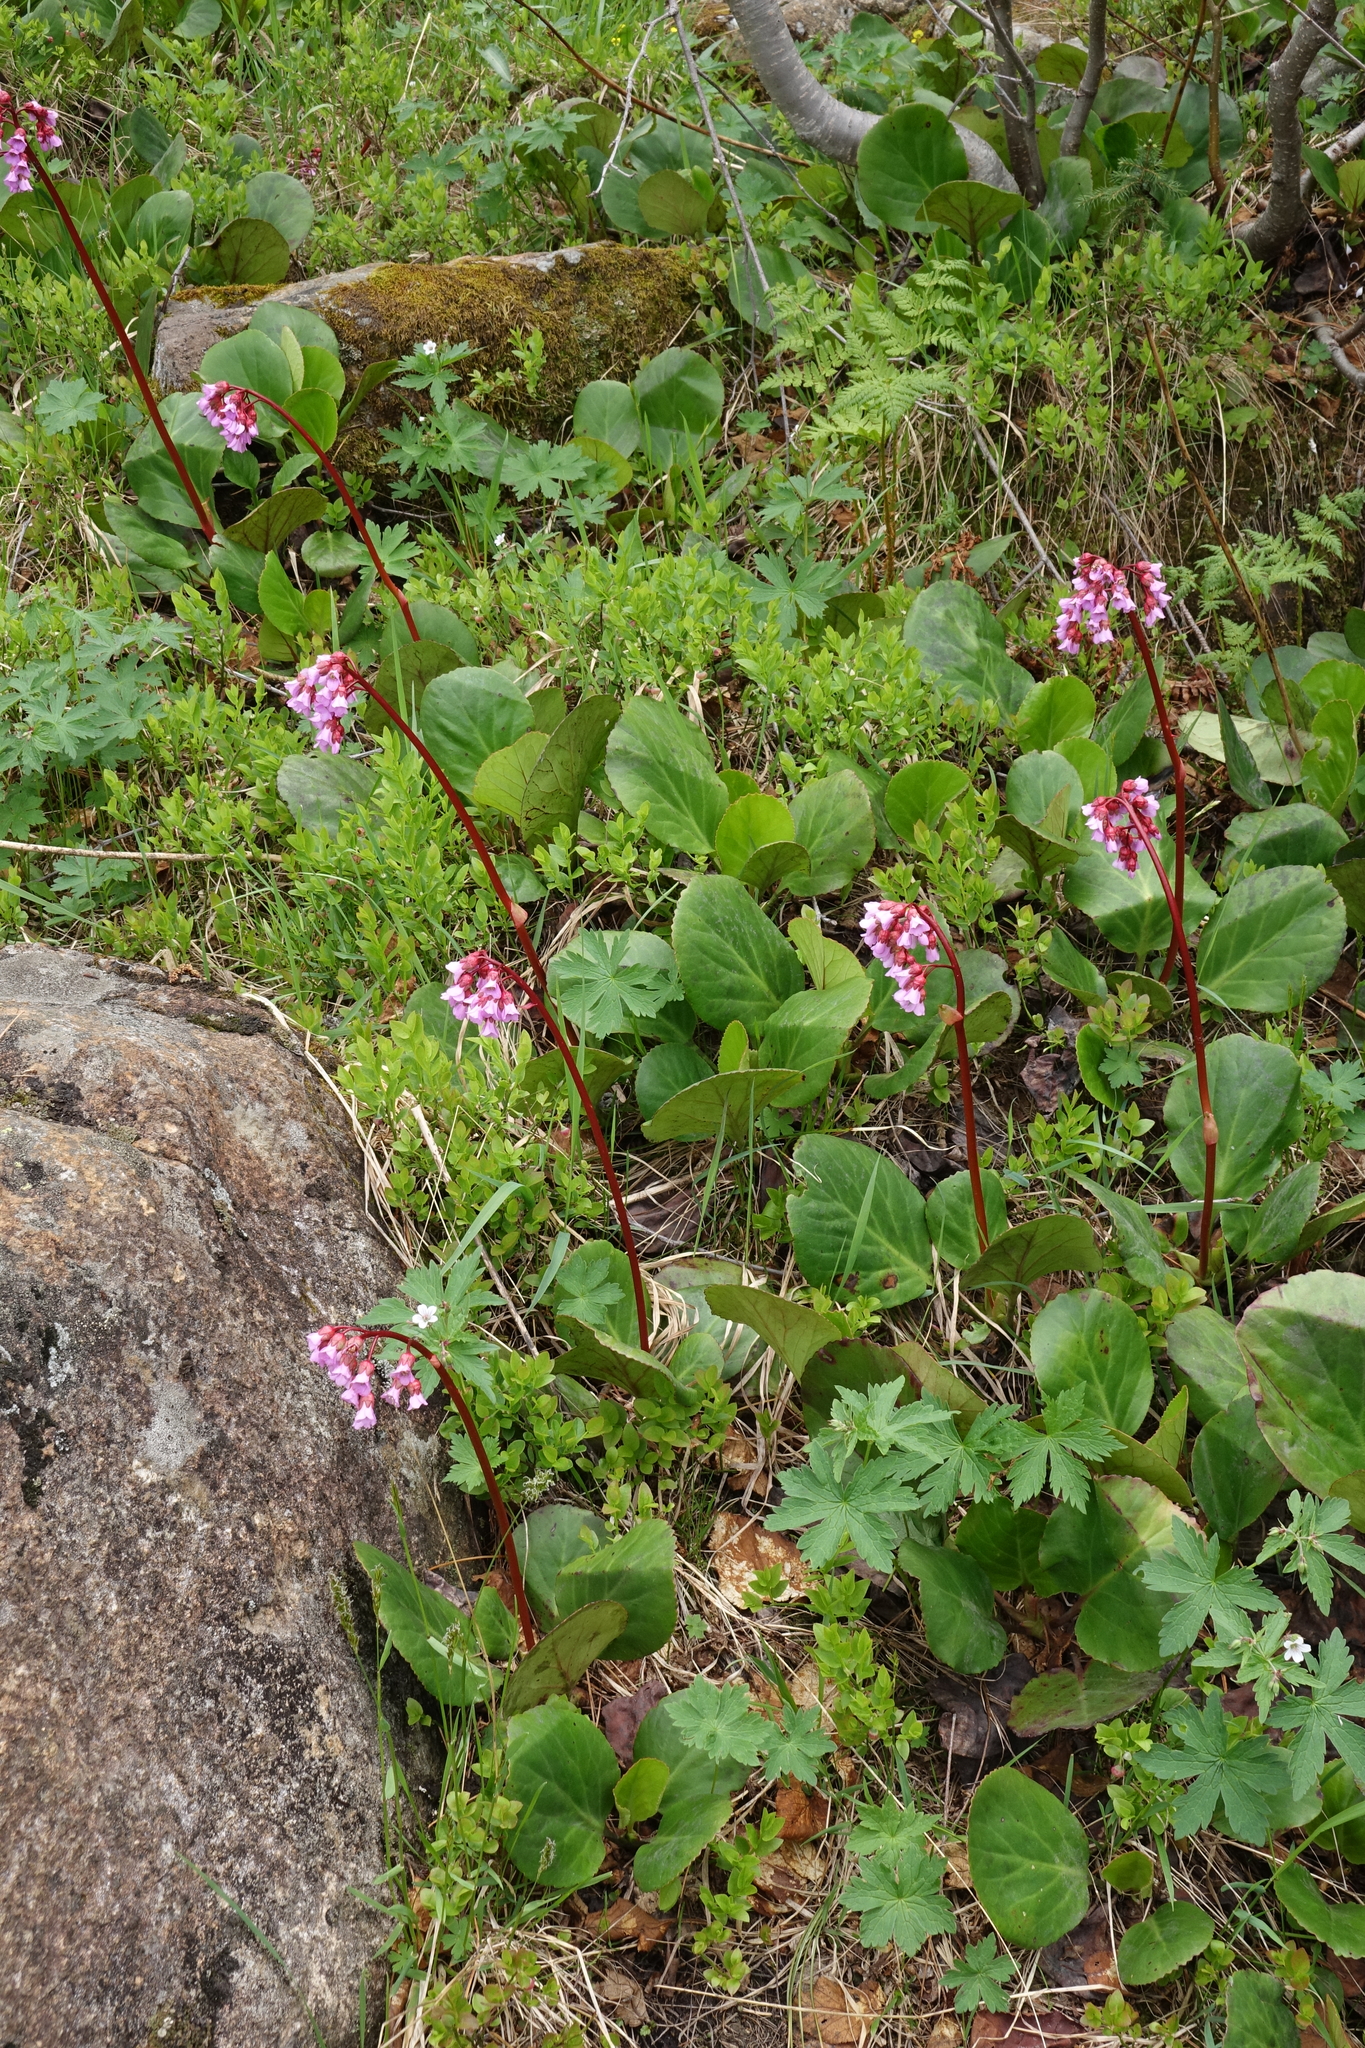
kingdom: Plantae
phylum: Tracheophyta
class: Magnoliopsida
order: Saxifragales
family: Saxifragaceae
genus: Bergenia
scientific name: Bergenia crassifolia
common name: Elephant-ears
